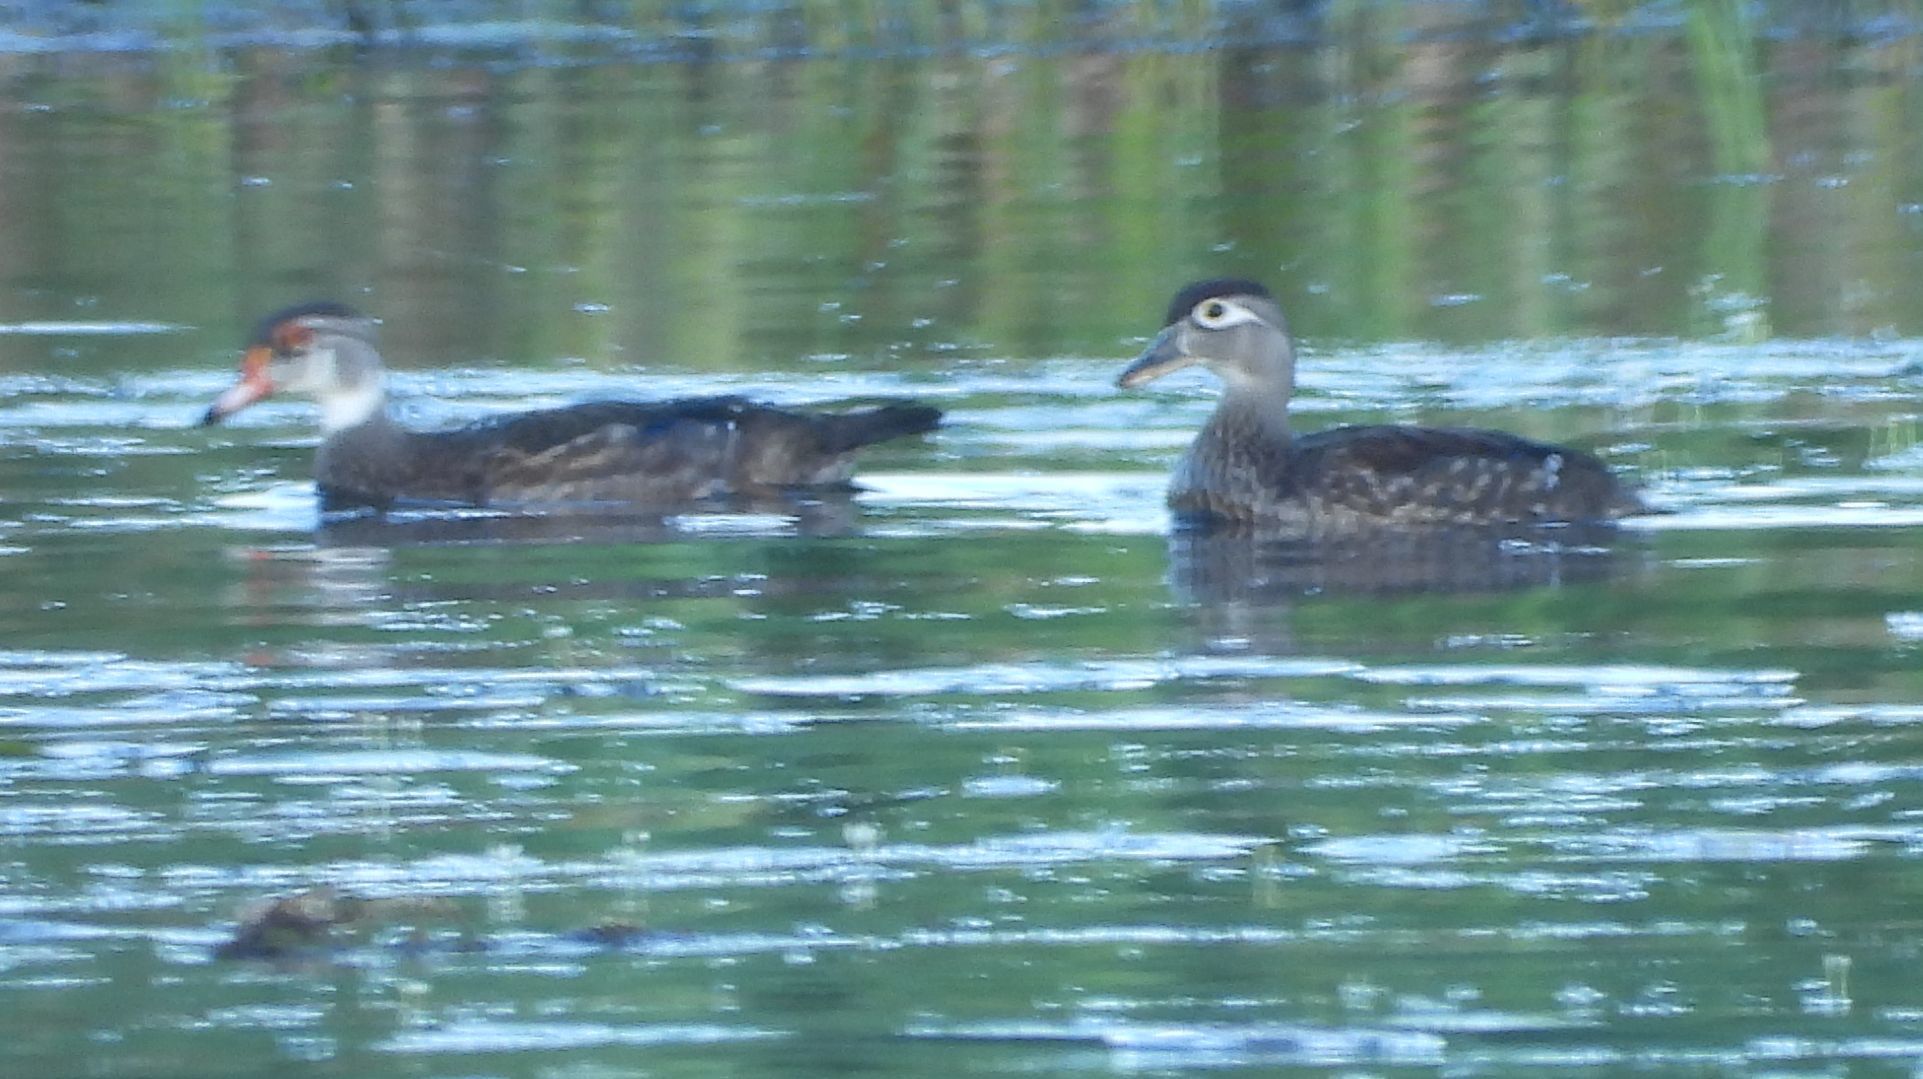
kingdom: Animalia
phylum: Chordata
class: Aves
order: Anseriformes
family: Anatidae
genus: Aix
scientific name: Aix sponsa
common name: Wood duck
